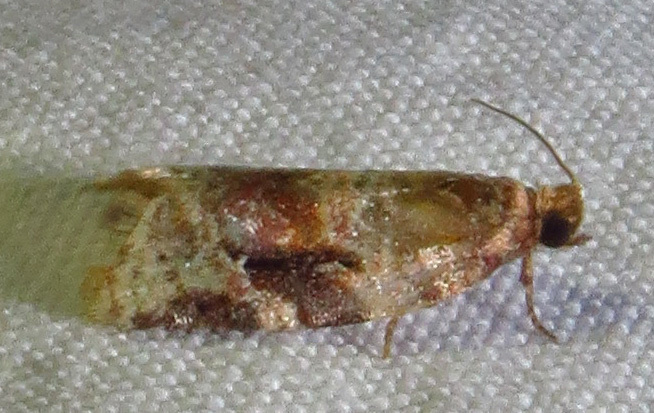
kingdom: Animalia
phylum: Arthropoda
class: Insecta
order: Lepidoptera
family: Tortricidae
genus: Argyrotaenia
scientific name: Argyrotaenia velutinana
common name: Red-banded leafroller moth
